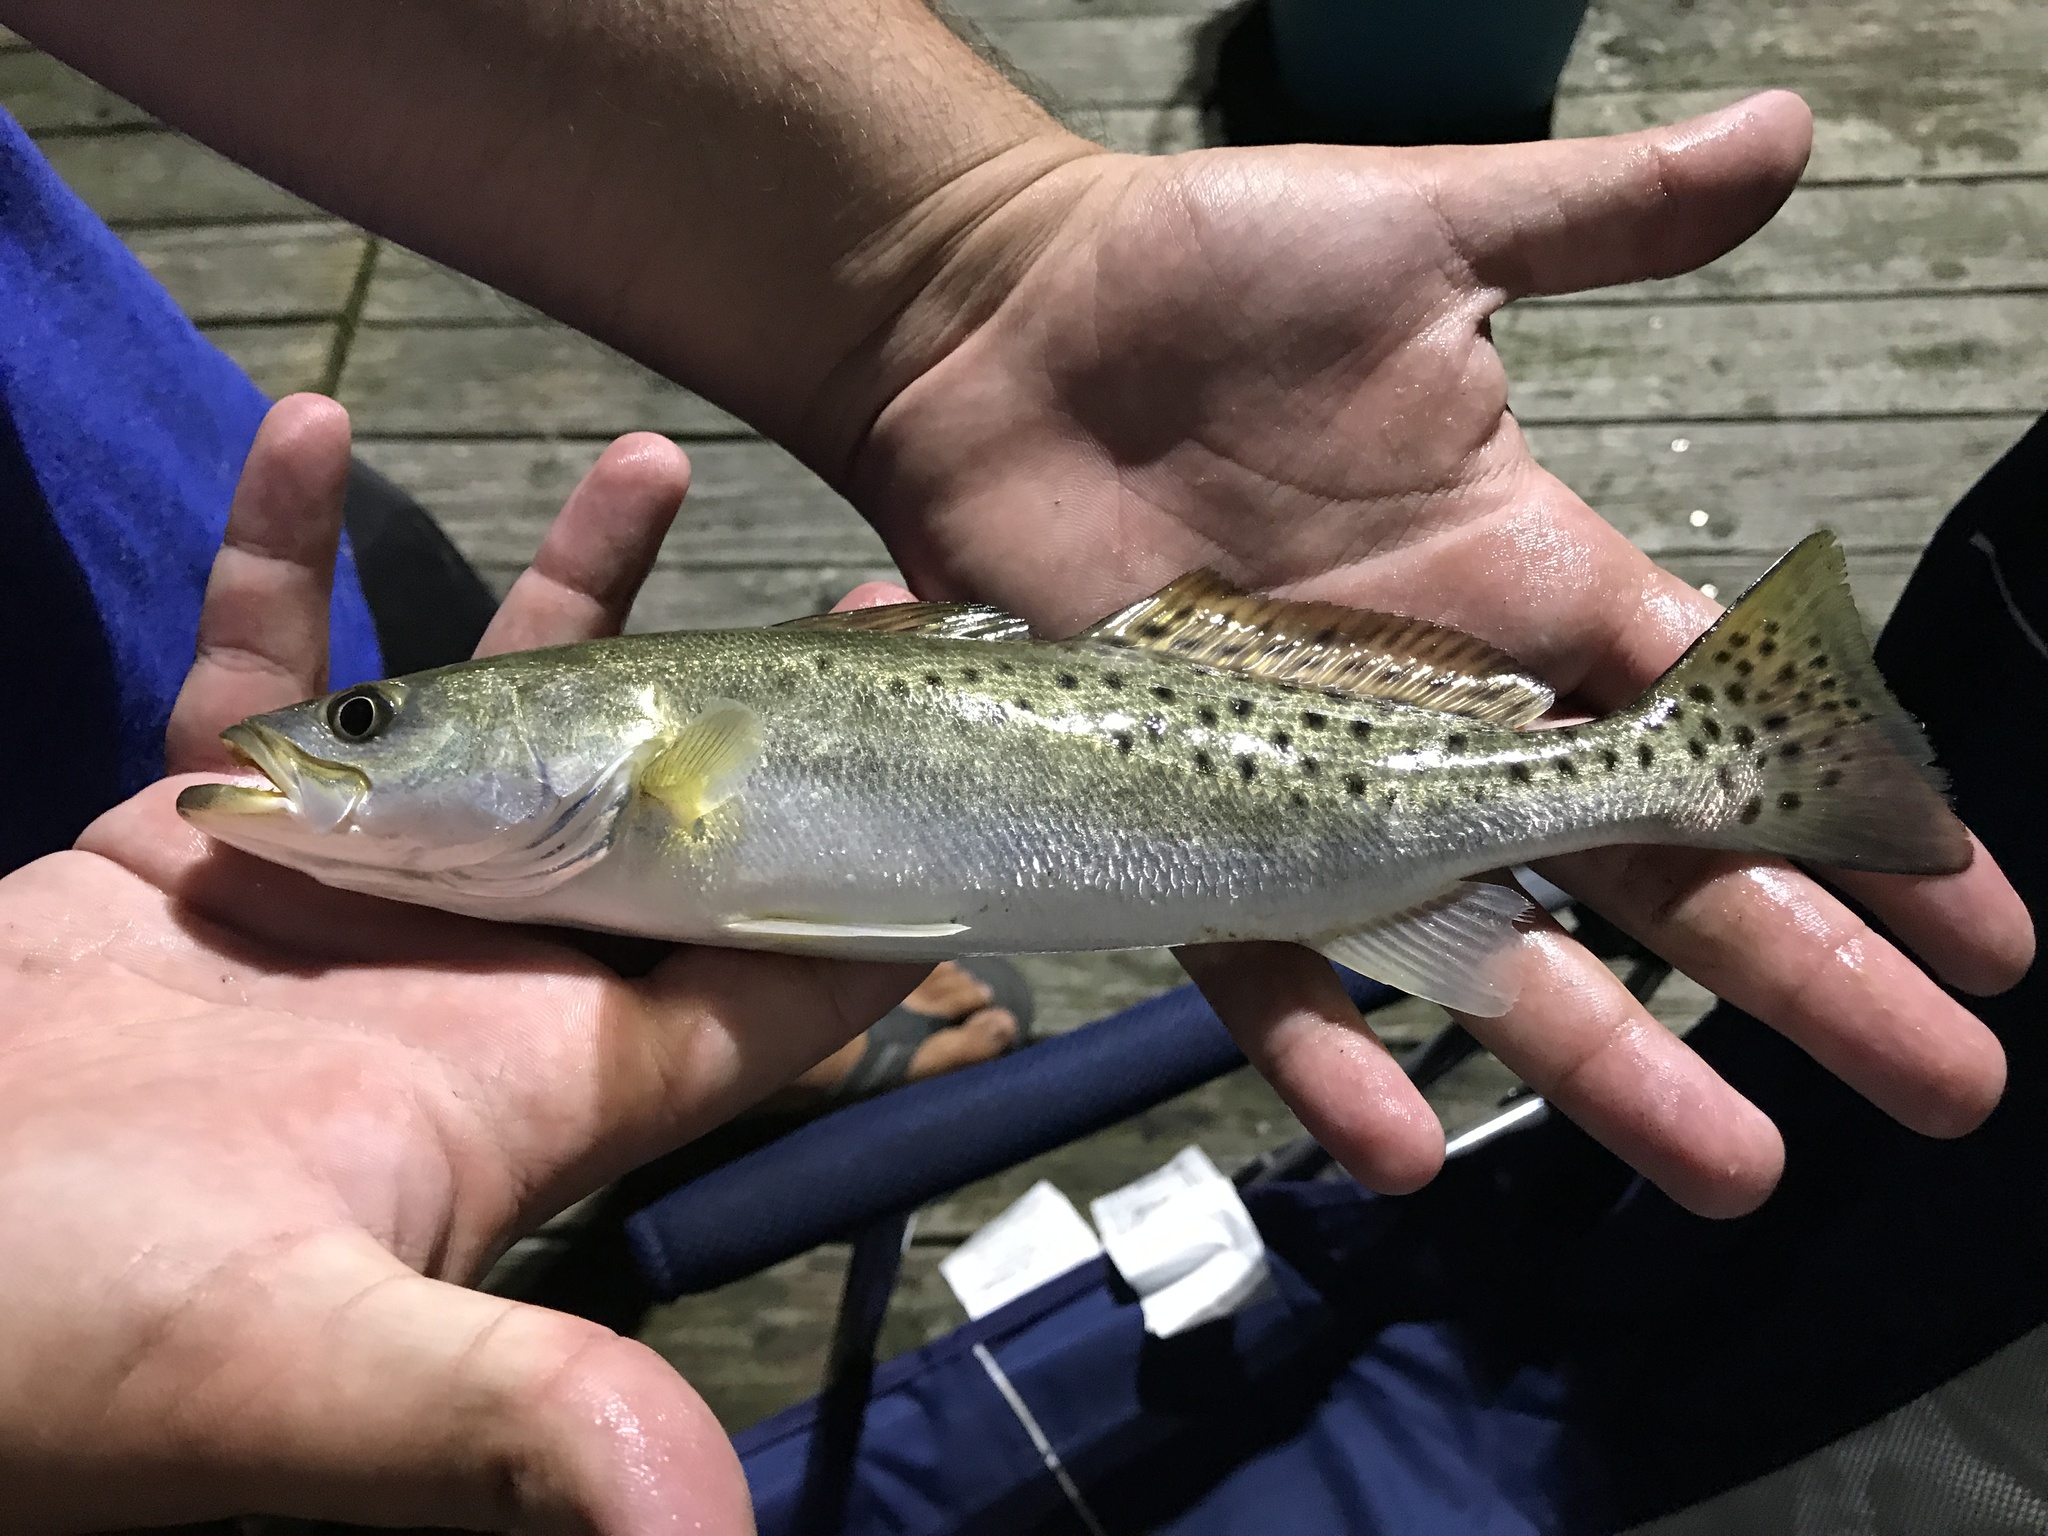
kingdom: Animalia
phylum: Chordata
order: Perciformes
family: Sciaenidae
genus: Cynoscion
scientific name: Cynoscion nebulosus
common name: Spotted seatrout
